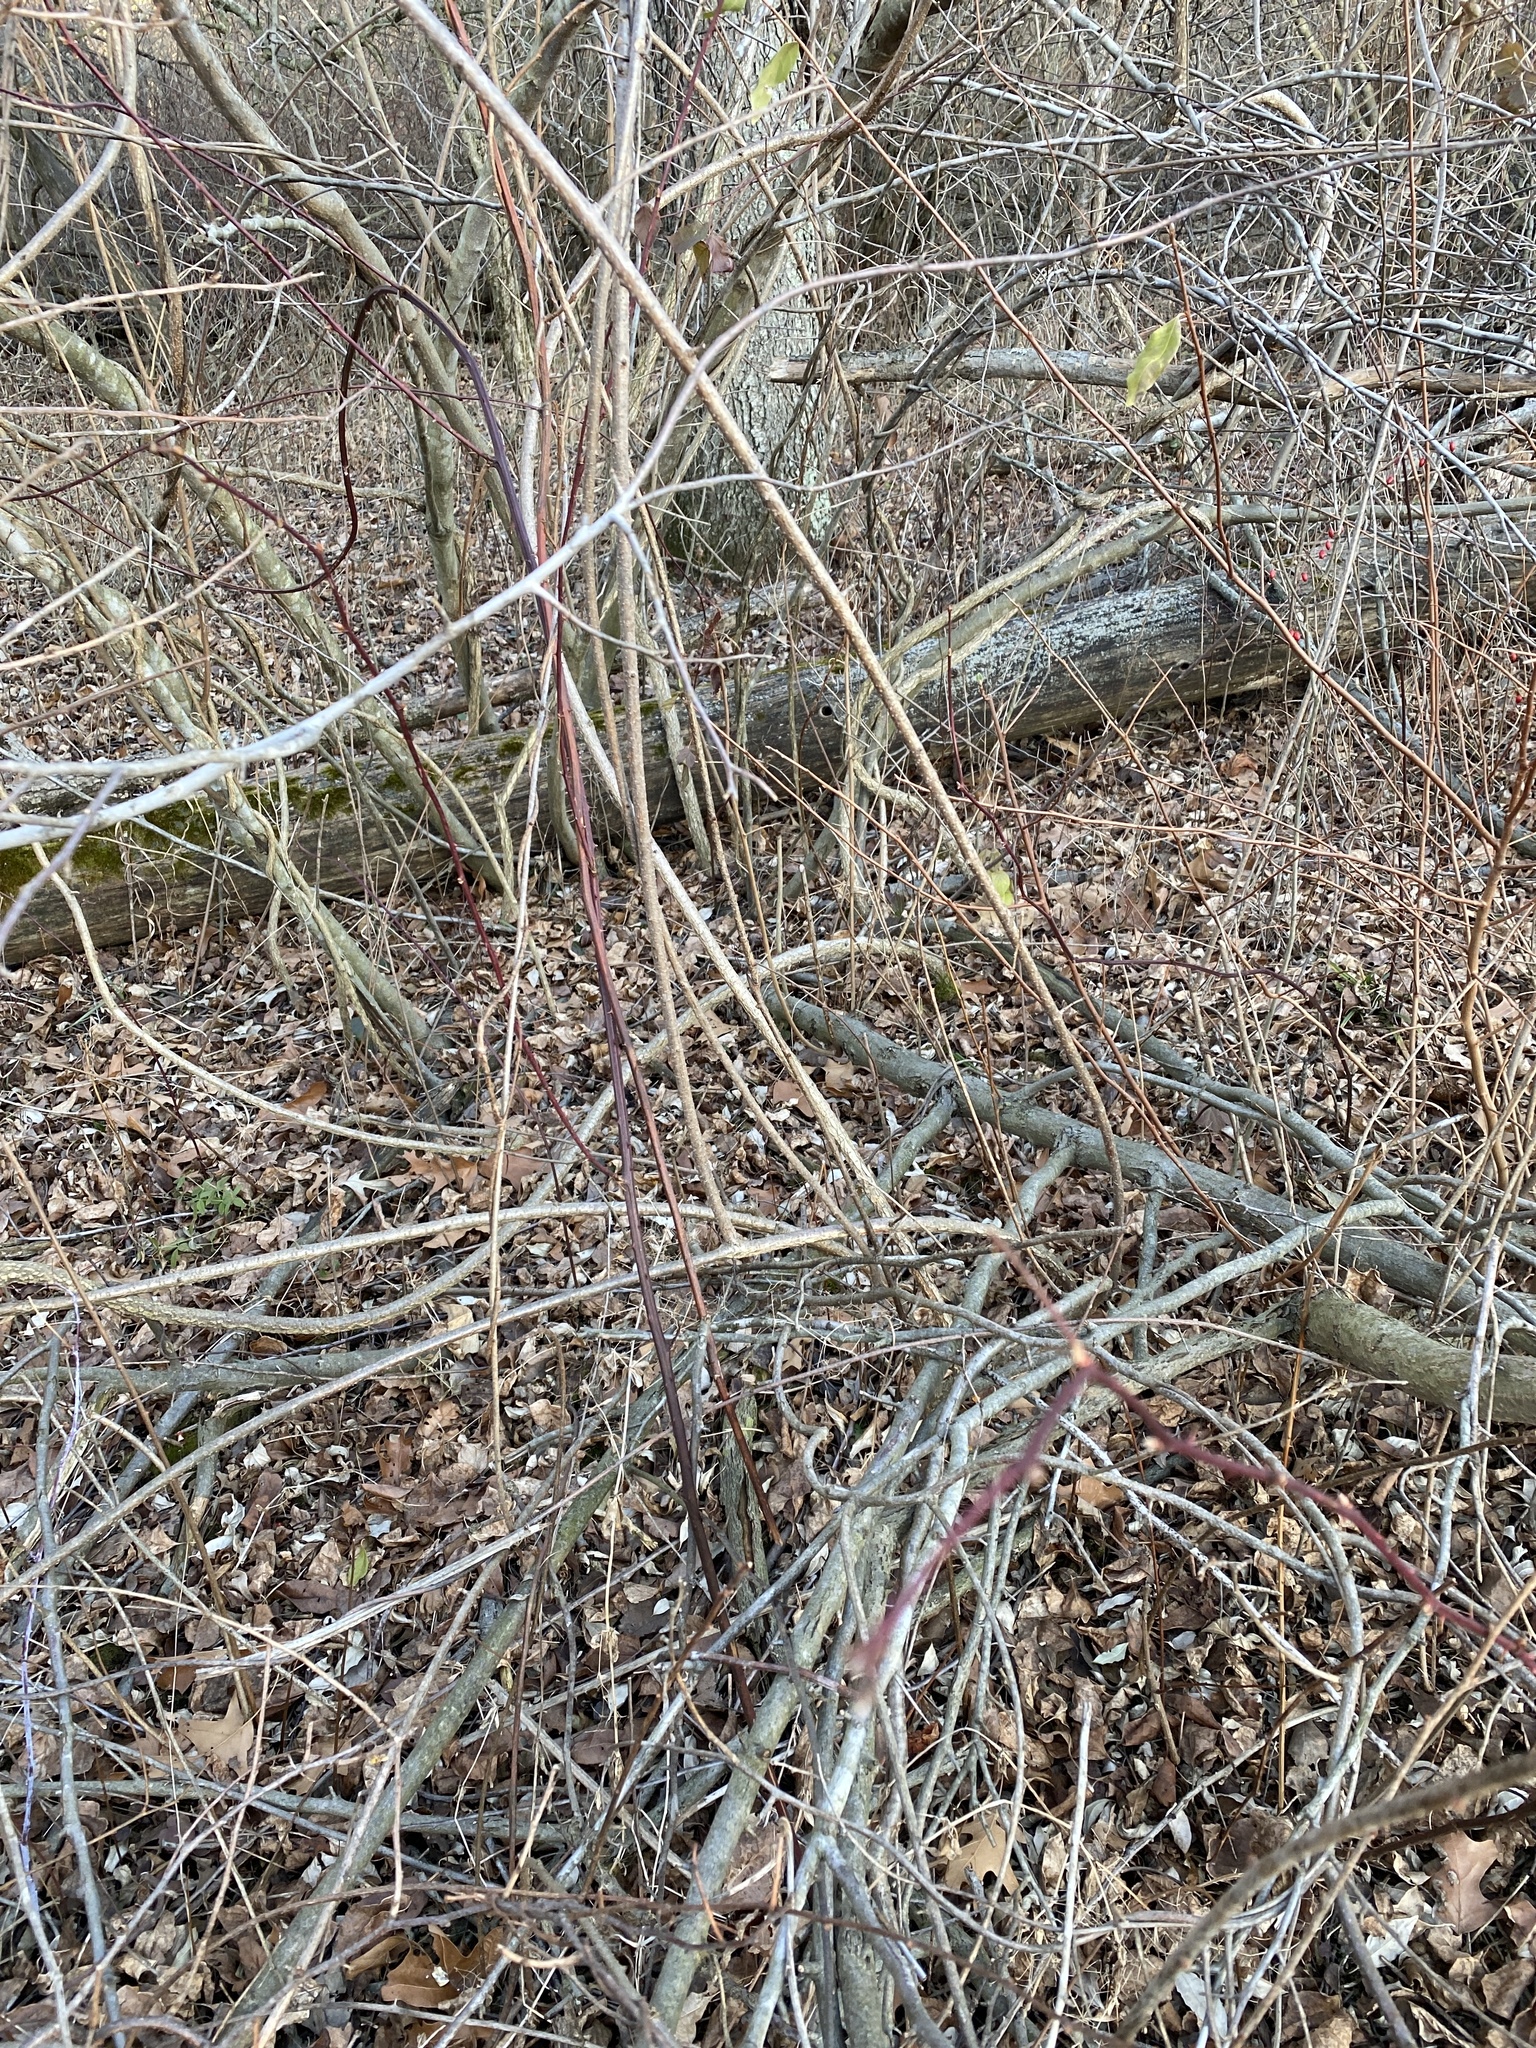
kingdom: Plantae
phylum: Tracheophyta
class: Magnoliopsida
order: Celastrales
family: Celastraceae
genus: Celastrus
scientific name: Celastrus orbiculatus
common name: Oriental bittersweet
